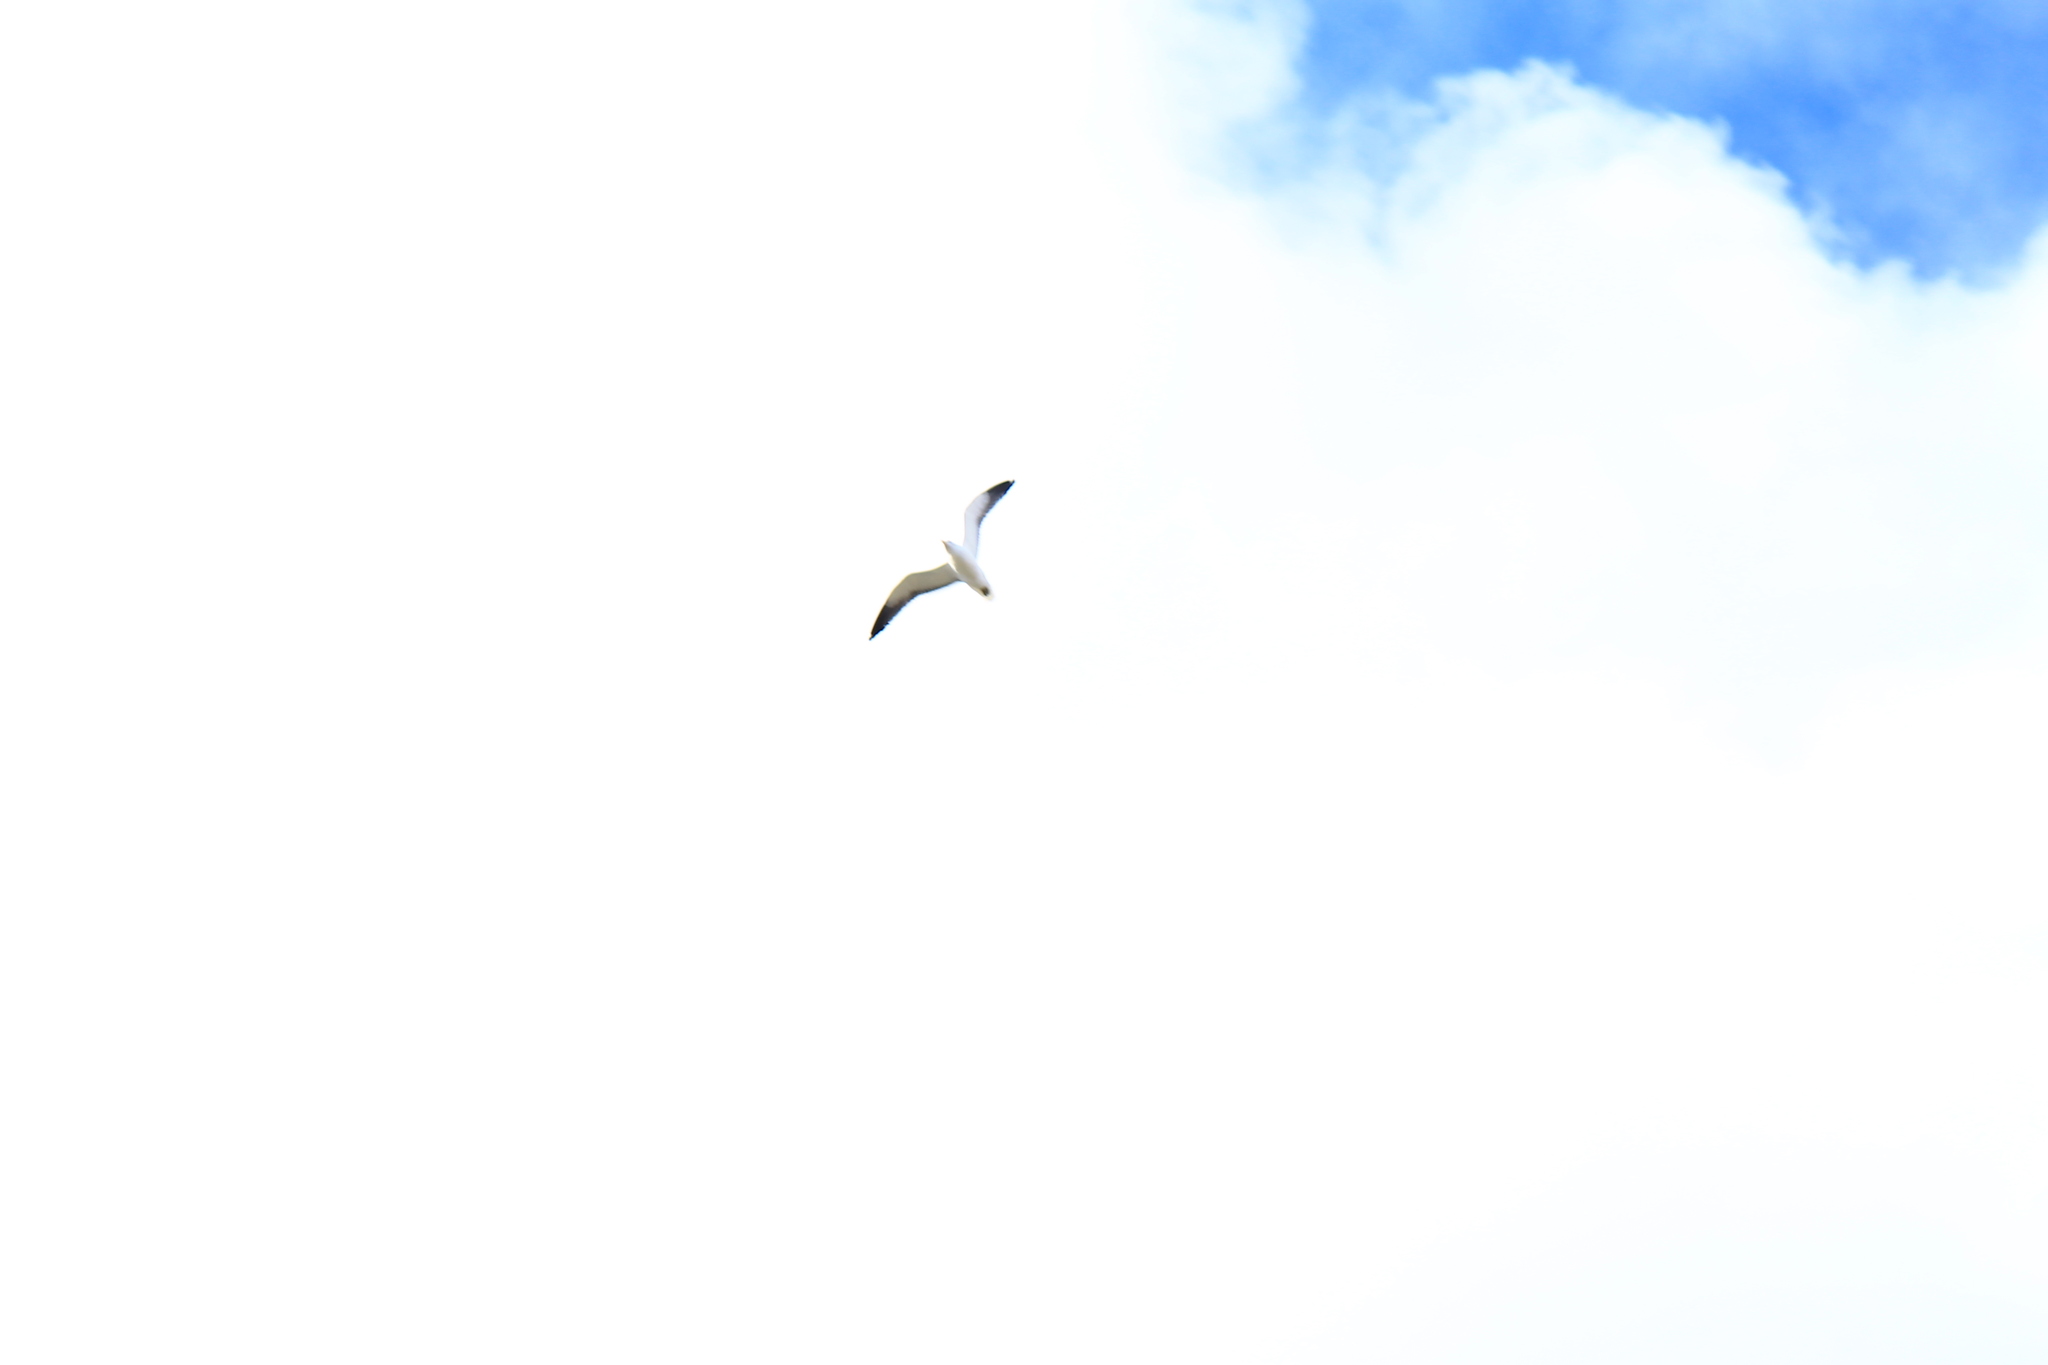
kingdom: Animalia
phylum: Chordata
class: Aves
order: Charadriiformes
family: Laridae
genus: Larus
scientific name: Larus dominicanus
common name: Kelp gull
